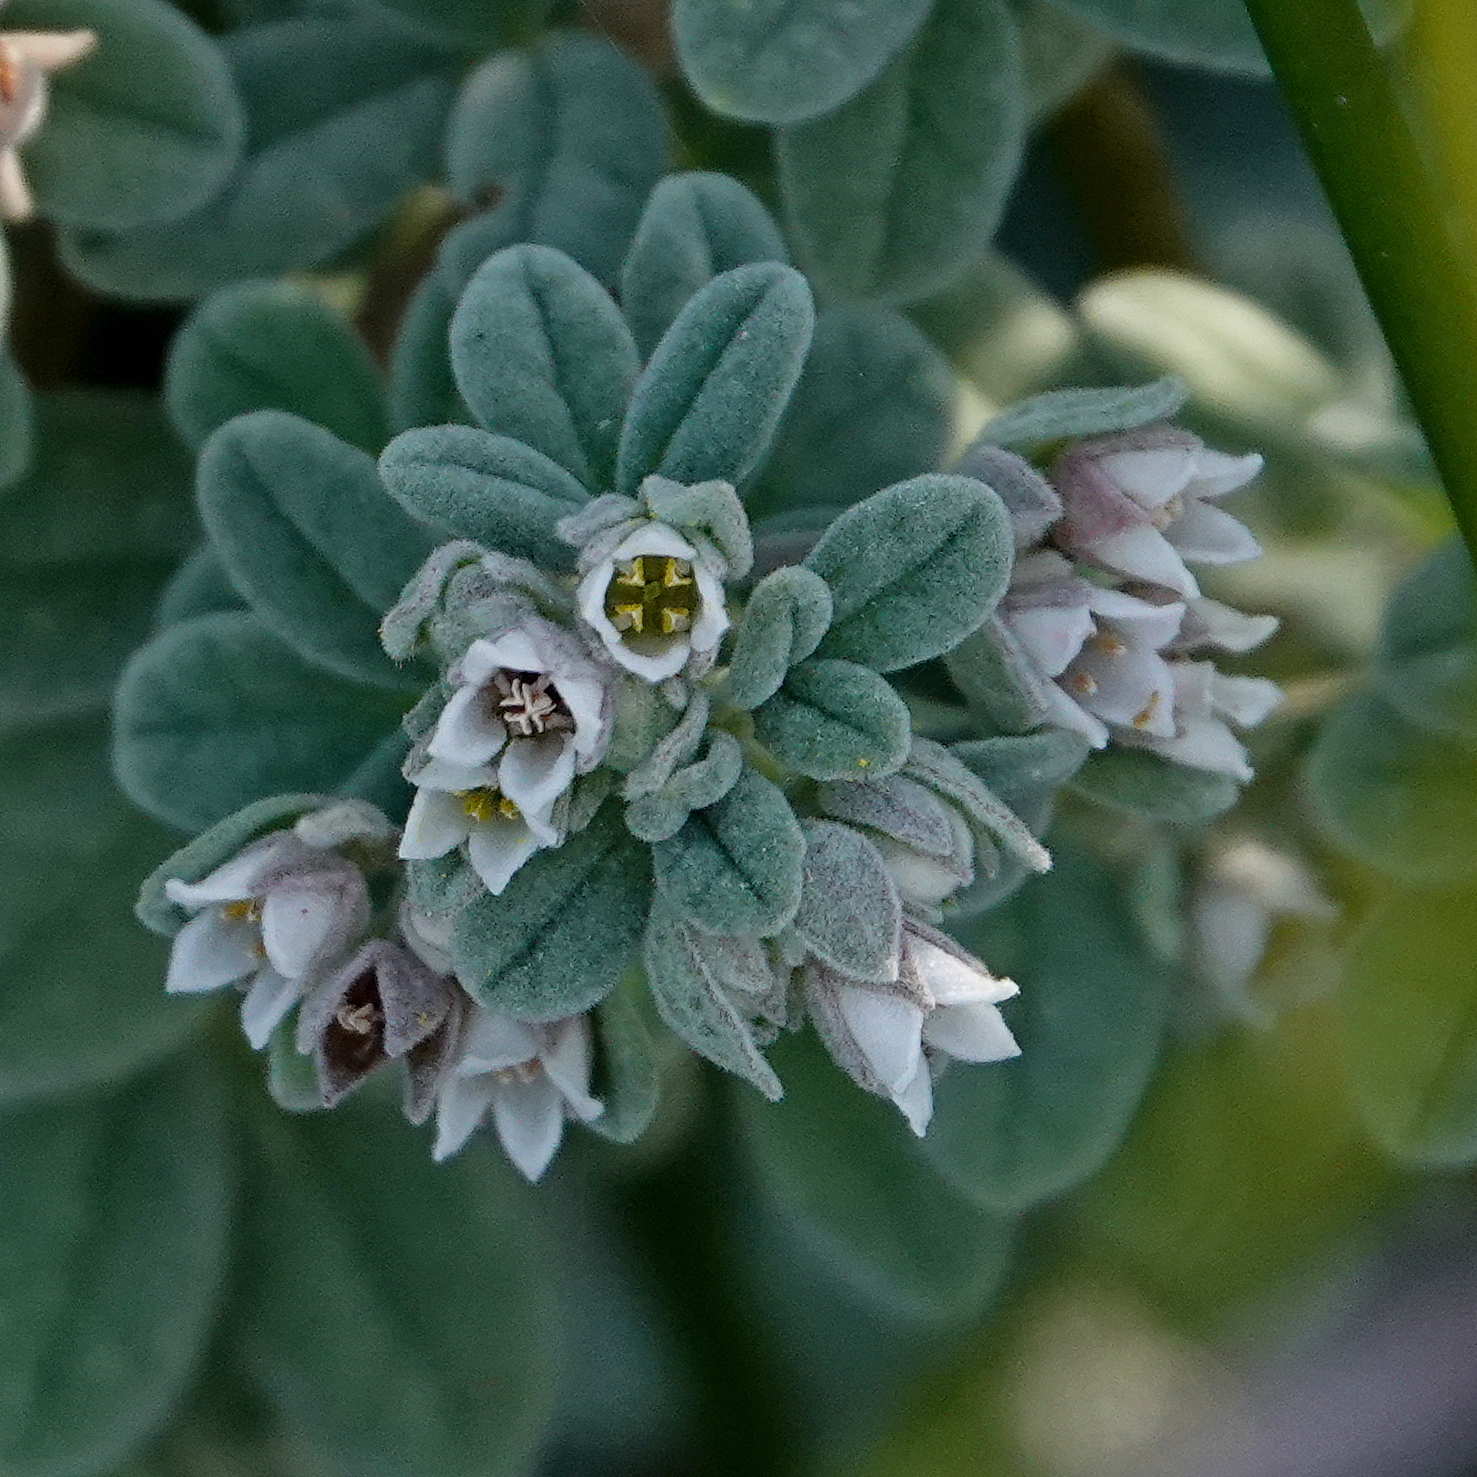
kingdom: Plantae
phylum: Tracheophyta
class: Magnoliopsida
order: Sapindales
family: Rutaceae
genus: Zieria
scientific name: Zieria littoralis
